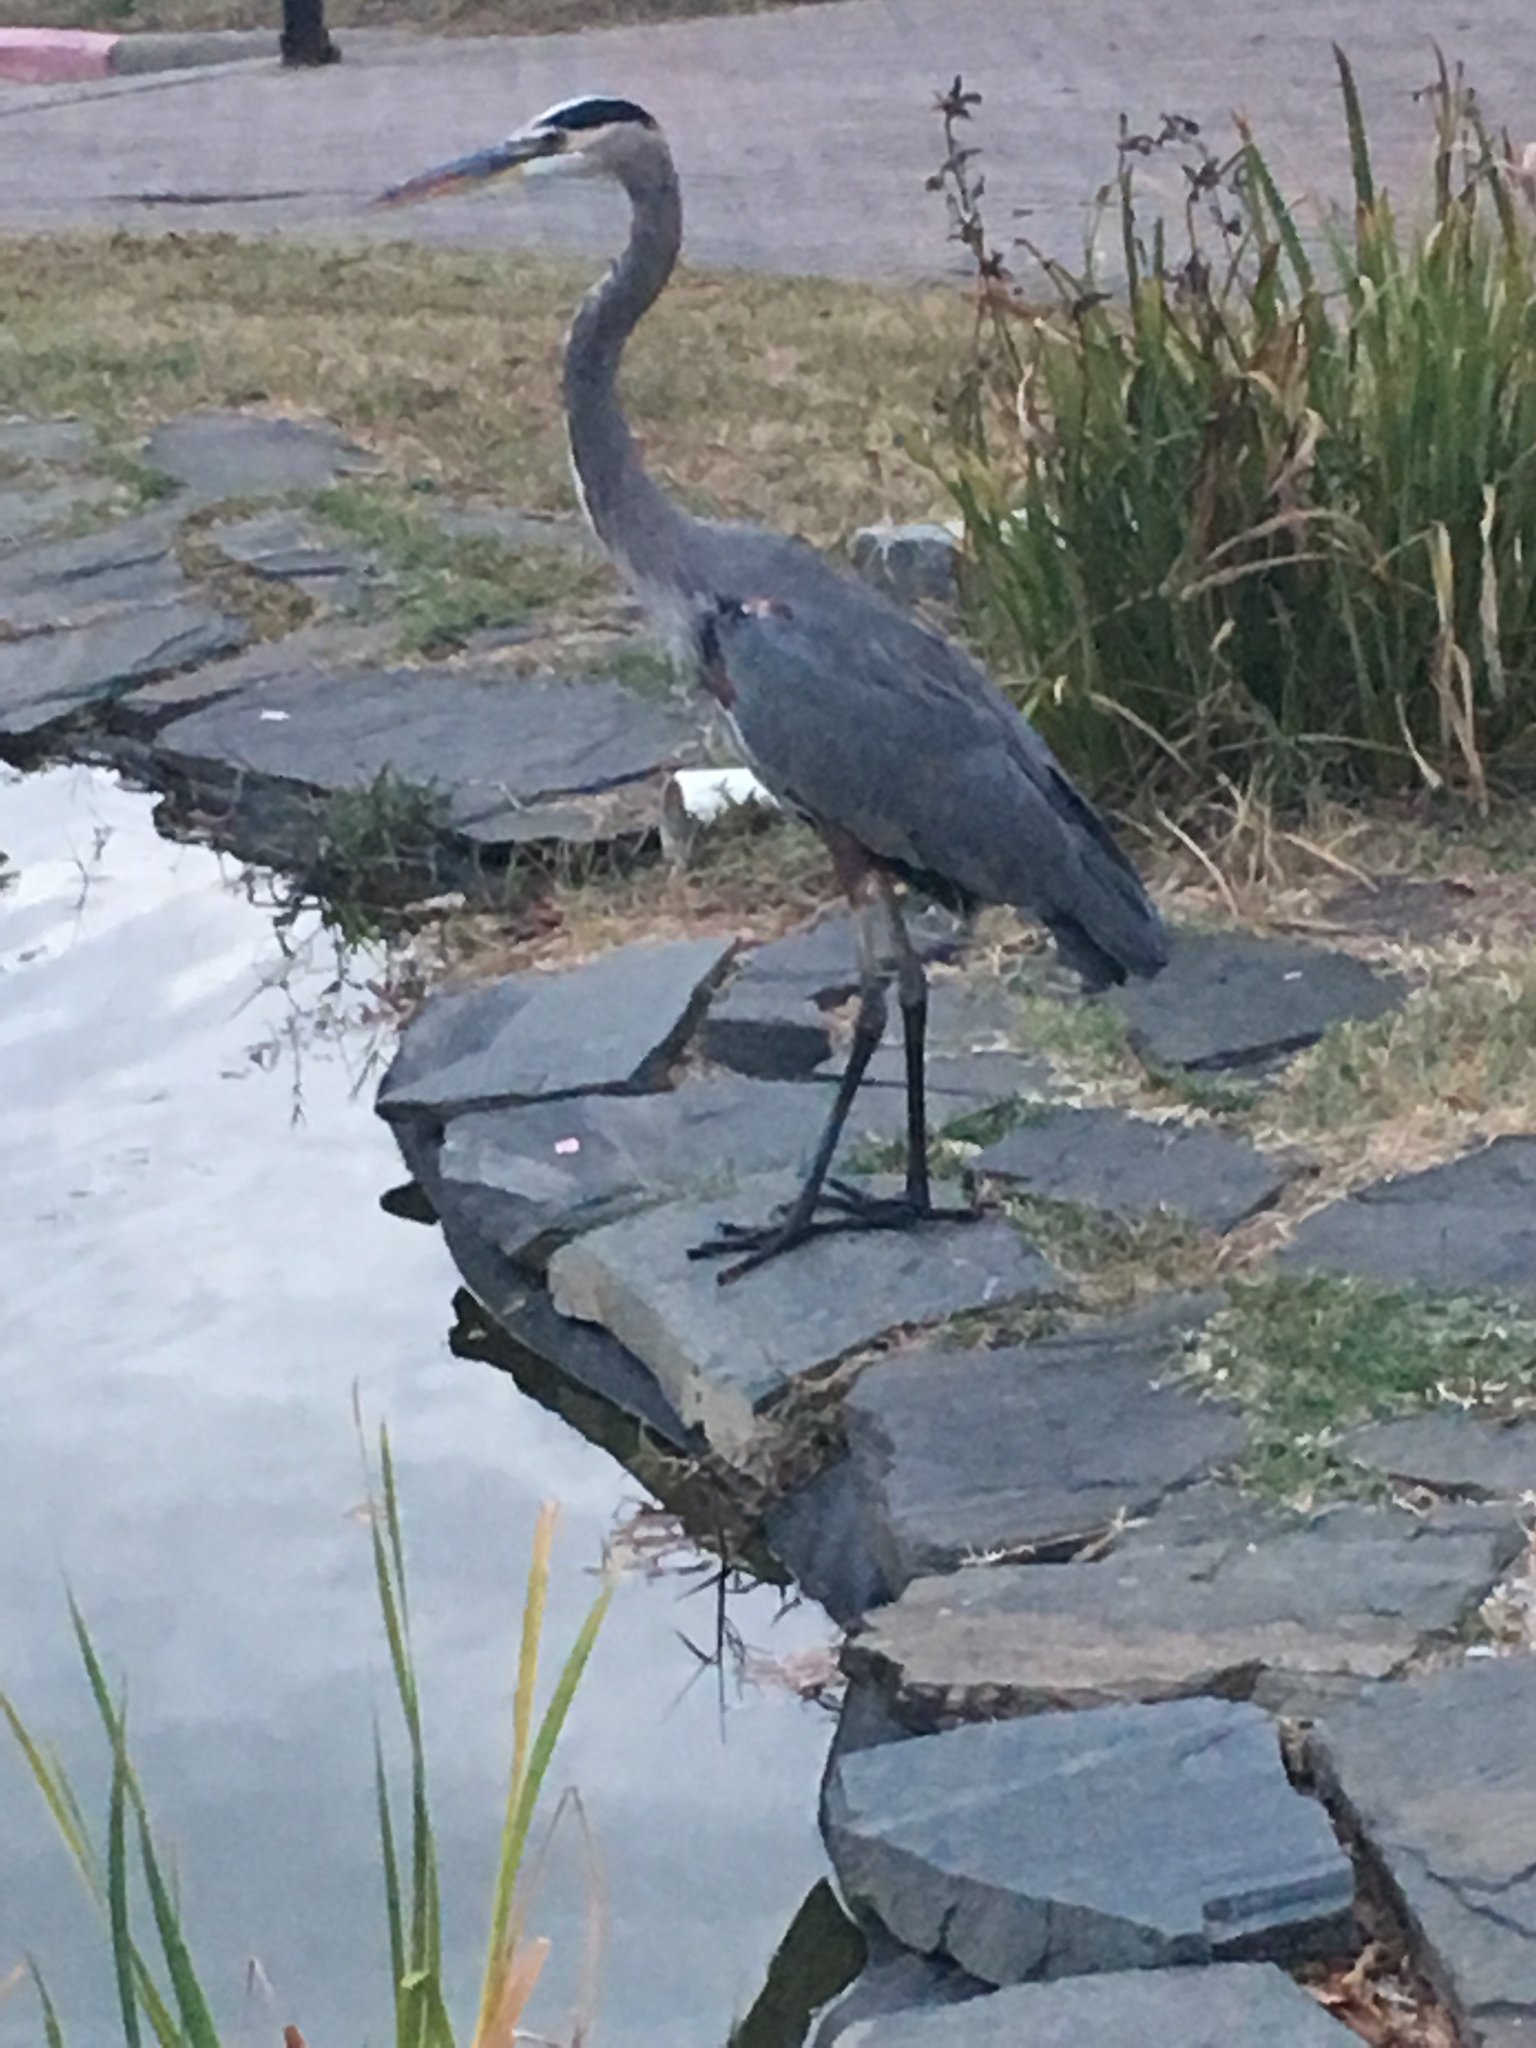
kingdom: Animalia
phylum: Chordata
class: Aves
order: Pelecaniformes
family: Ardeidae
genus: Ardea
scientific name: Ardea herodias
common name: Great blue heron
